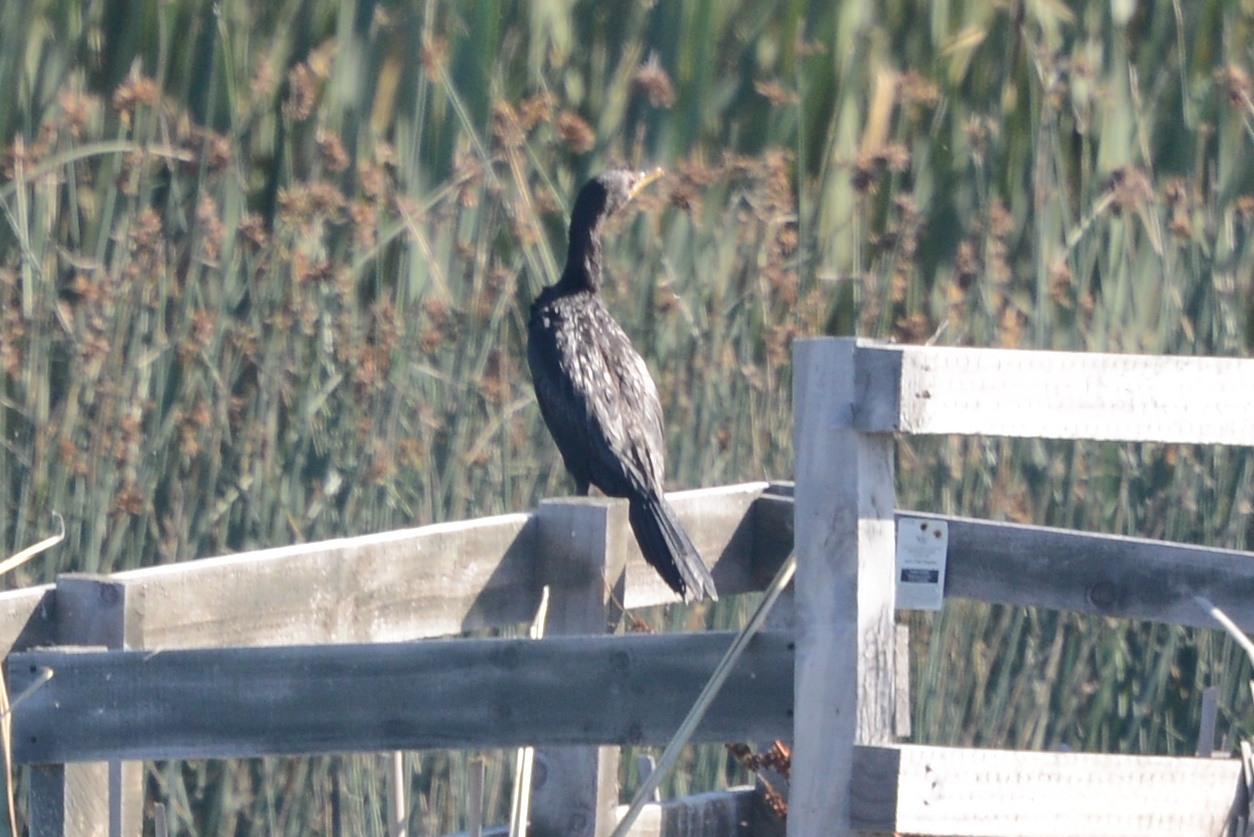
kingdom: Animalia
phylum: Chordata
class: Aves
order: Suliformes
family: Phalacrocoracidae
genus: Microcarbo
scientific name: Microcarbo melanoleucos
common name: Little pied cormorant
